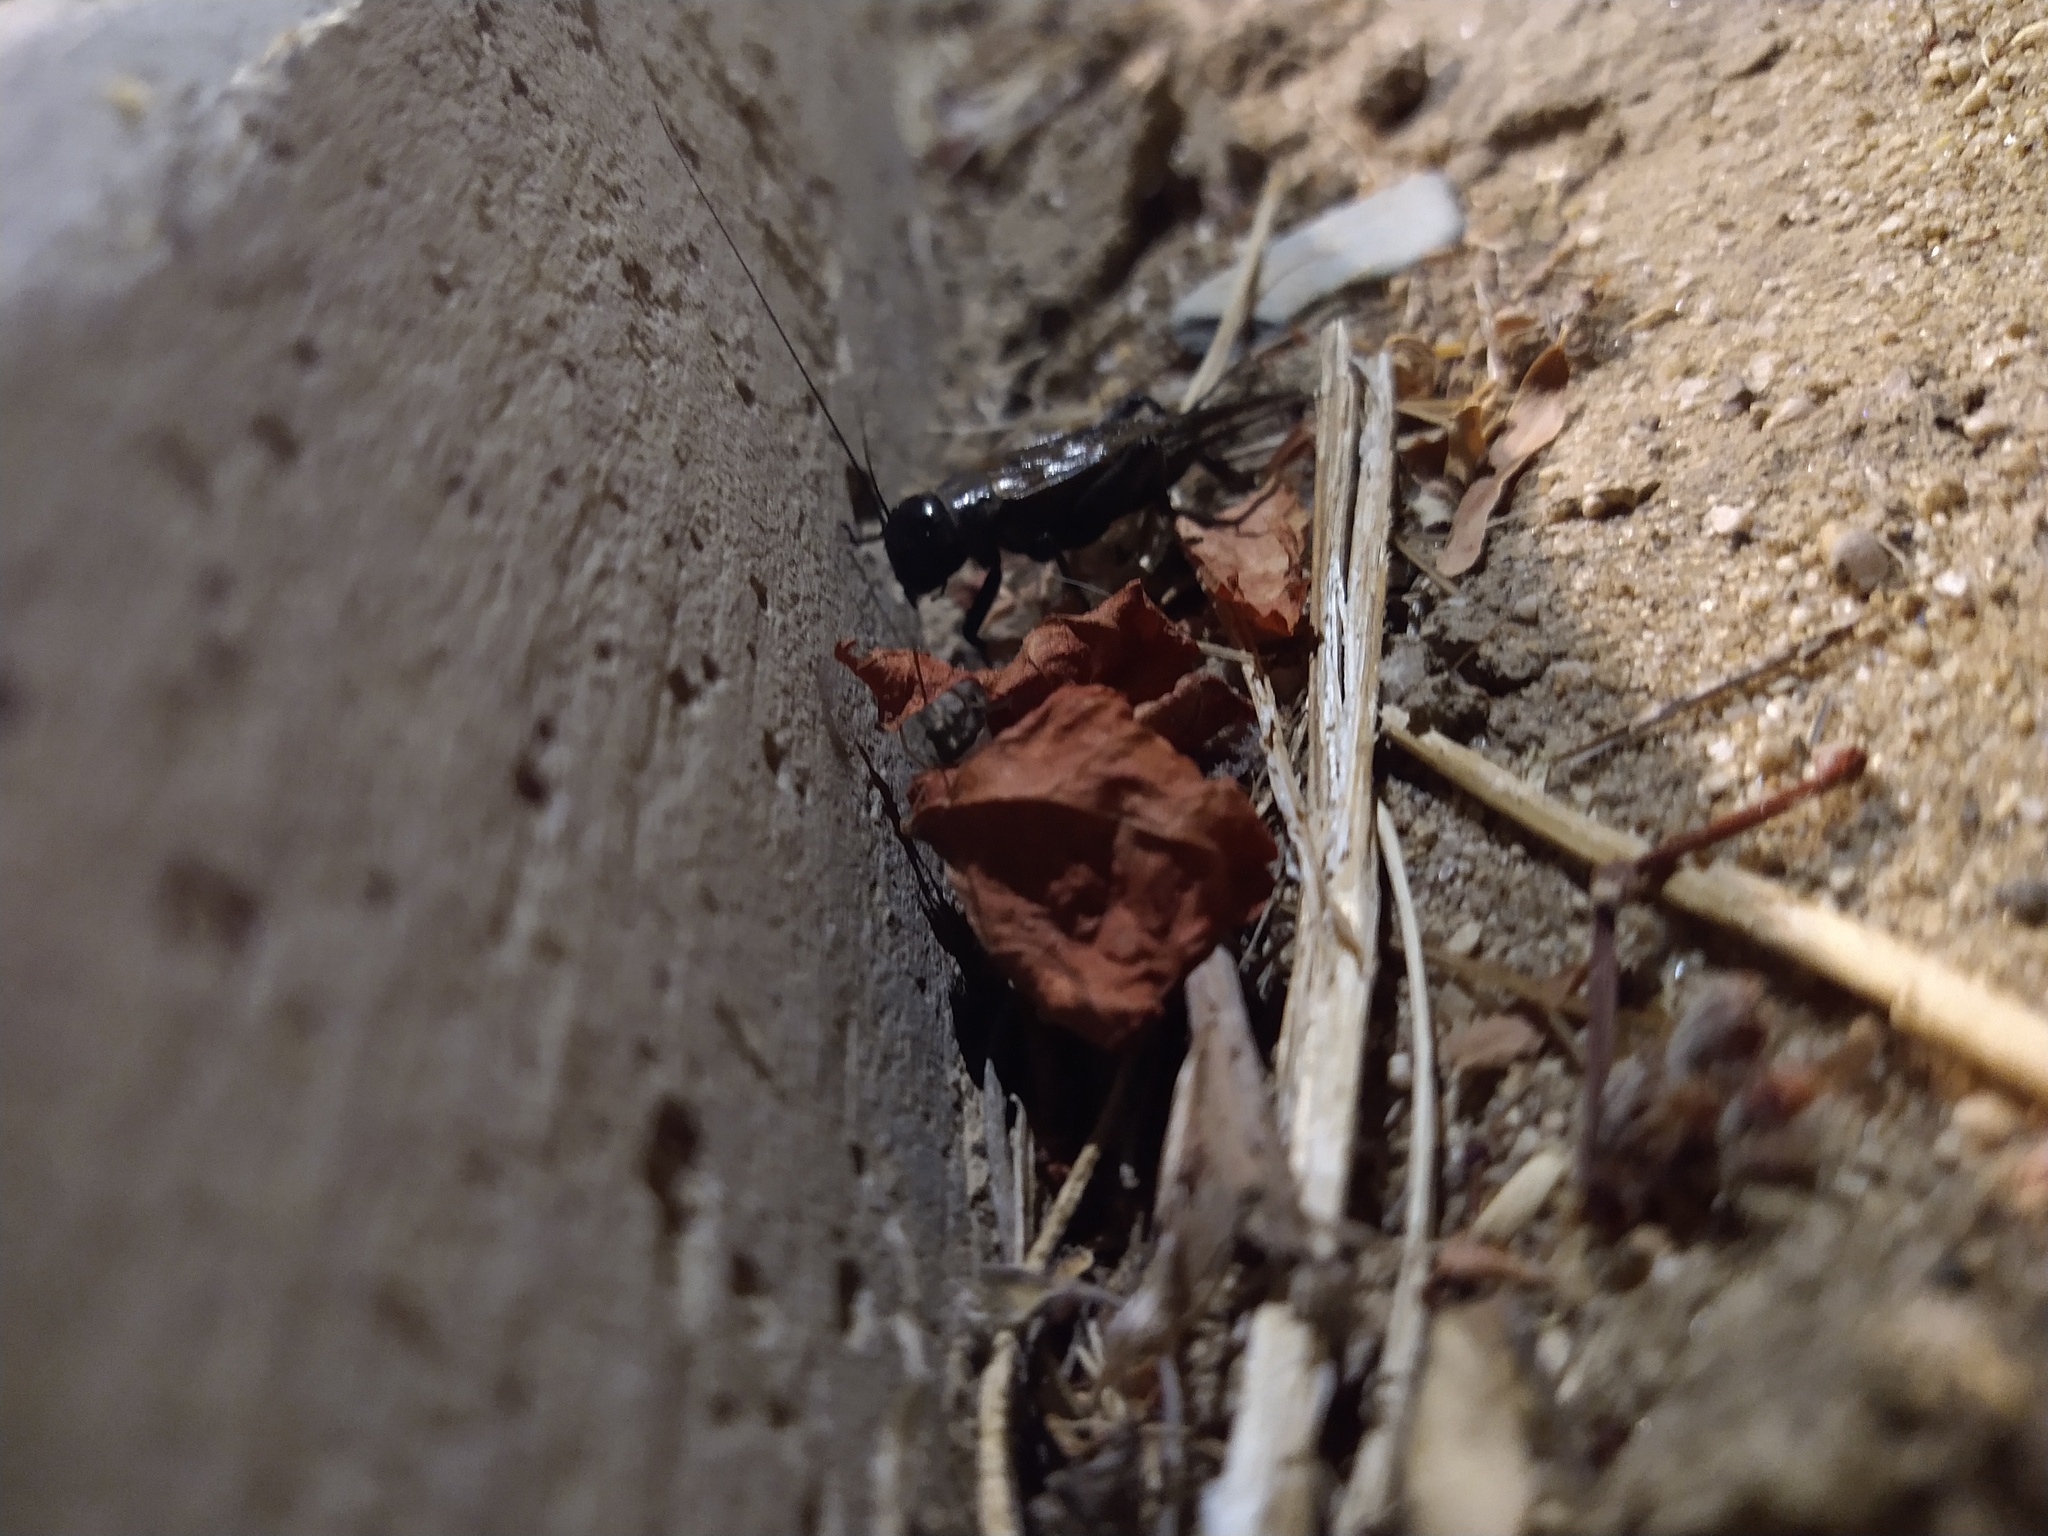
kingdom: Animalia
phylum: Arthropoda
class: Insecta
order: Orthoptera
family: Gryllidae
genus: Gryllus
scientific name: Gryllus
